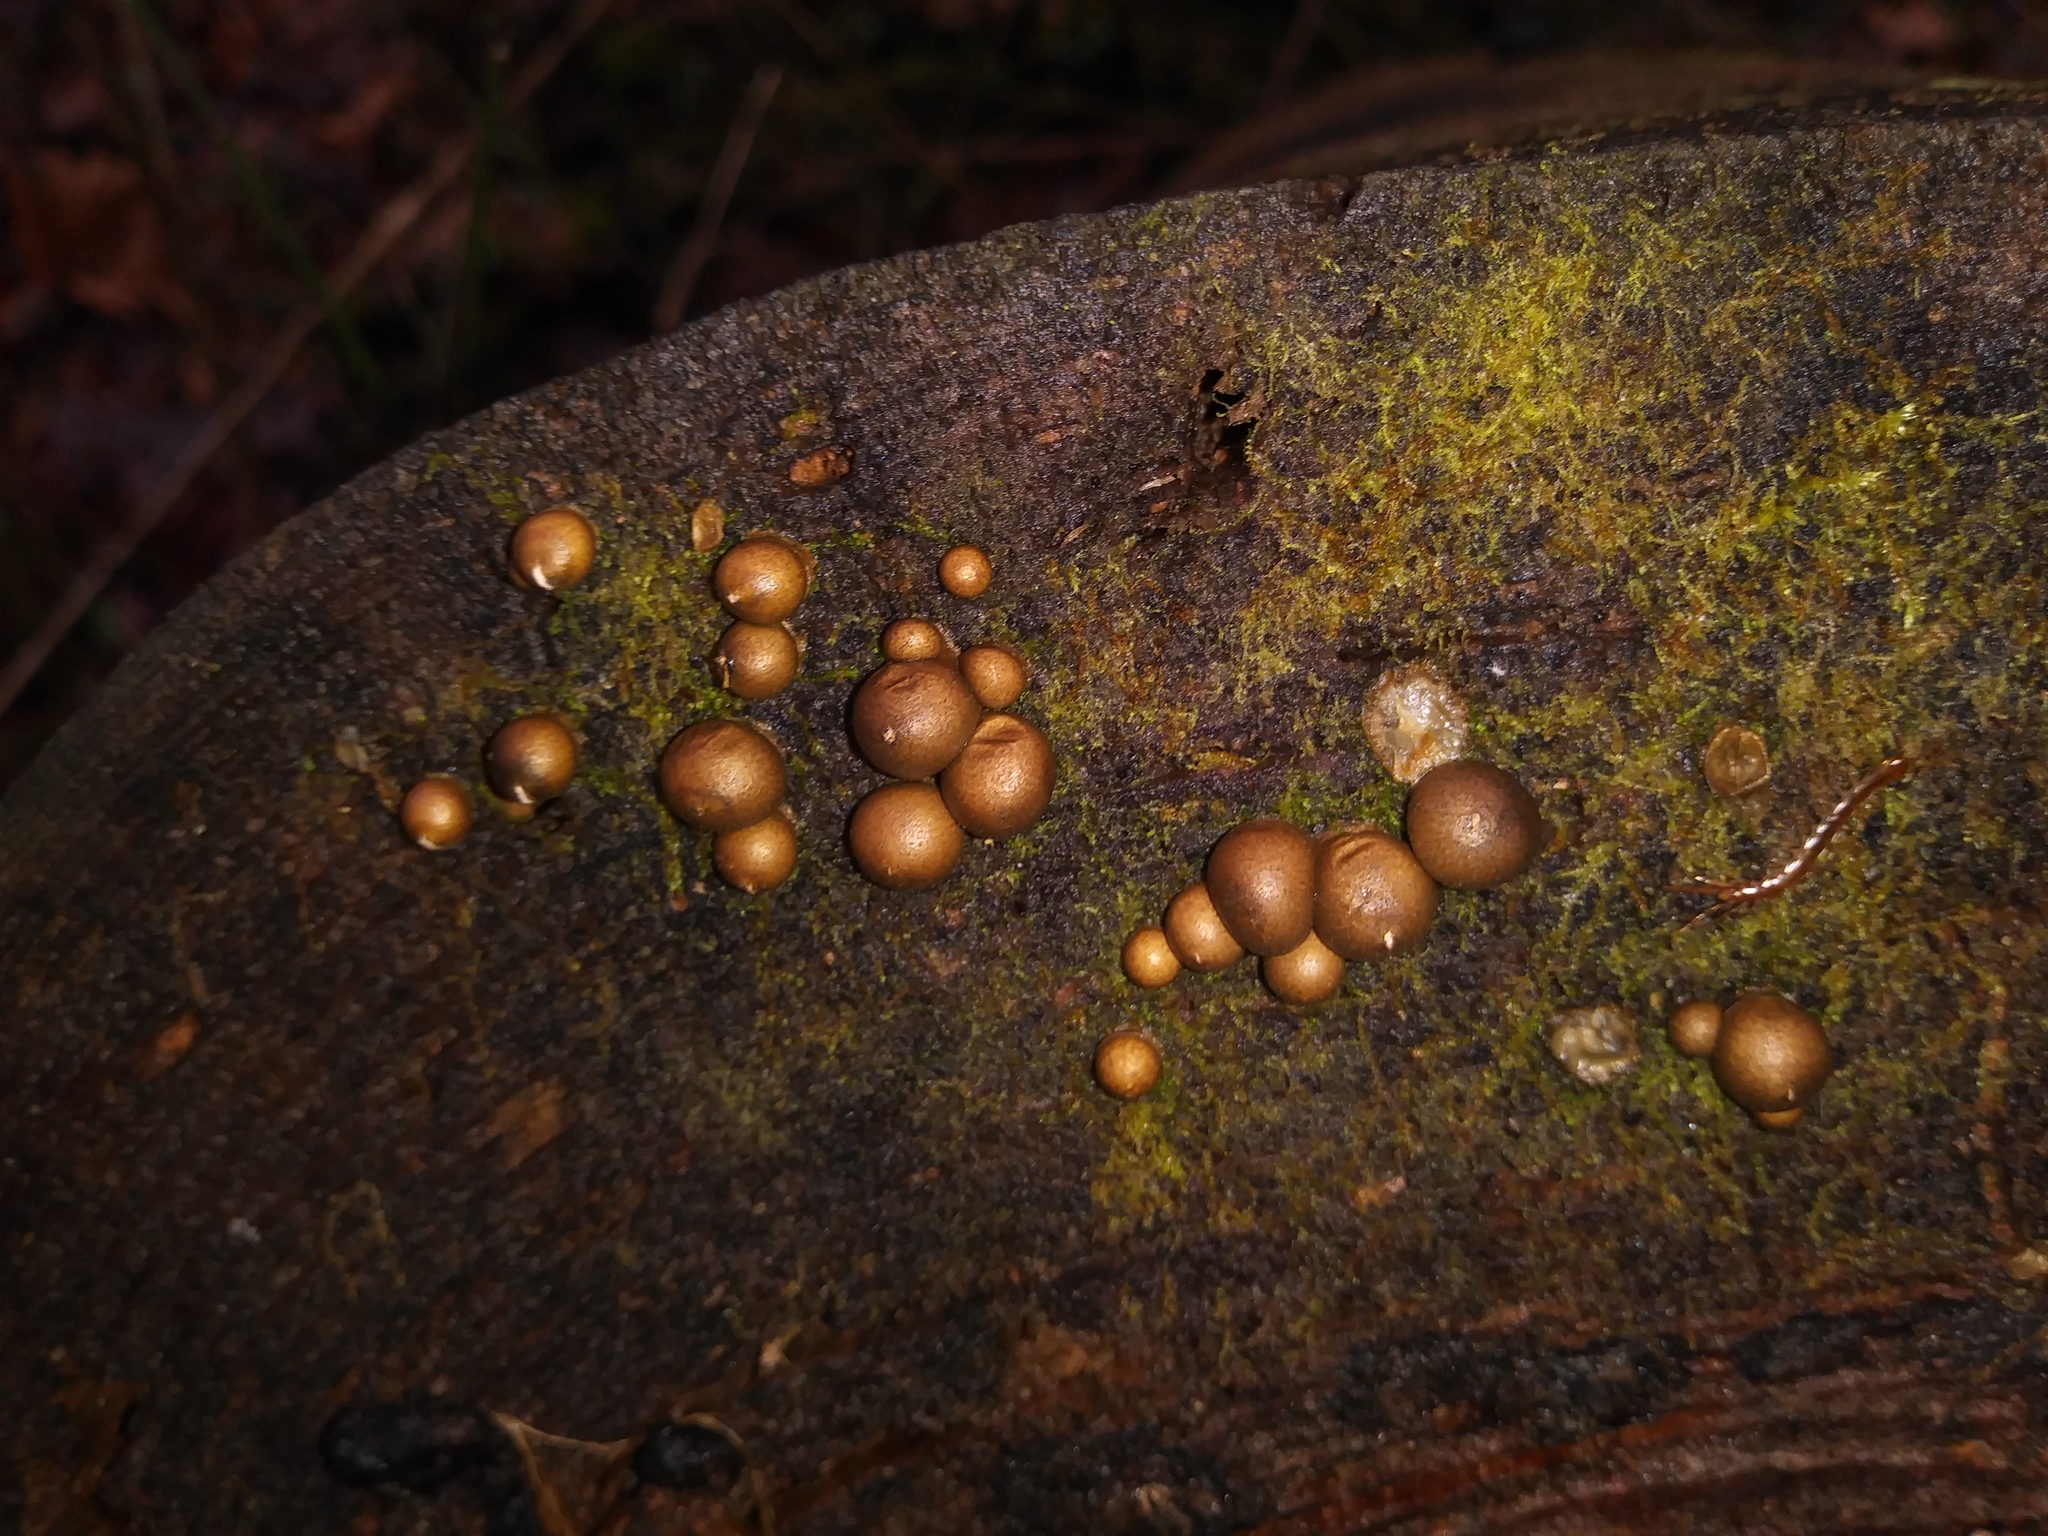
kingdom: Protozoa
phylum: Mycetozoa
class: Myxomycetes
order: Cribrariales
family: Tubiferaceae
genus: Lycogala
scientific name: Lycogala epidendrum
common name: Wolf's milk
